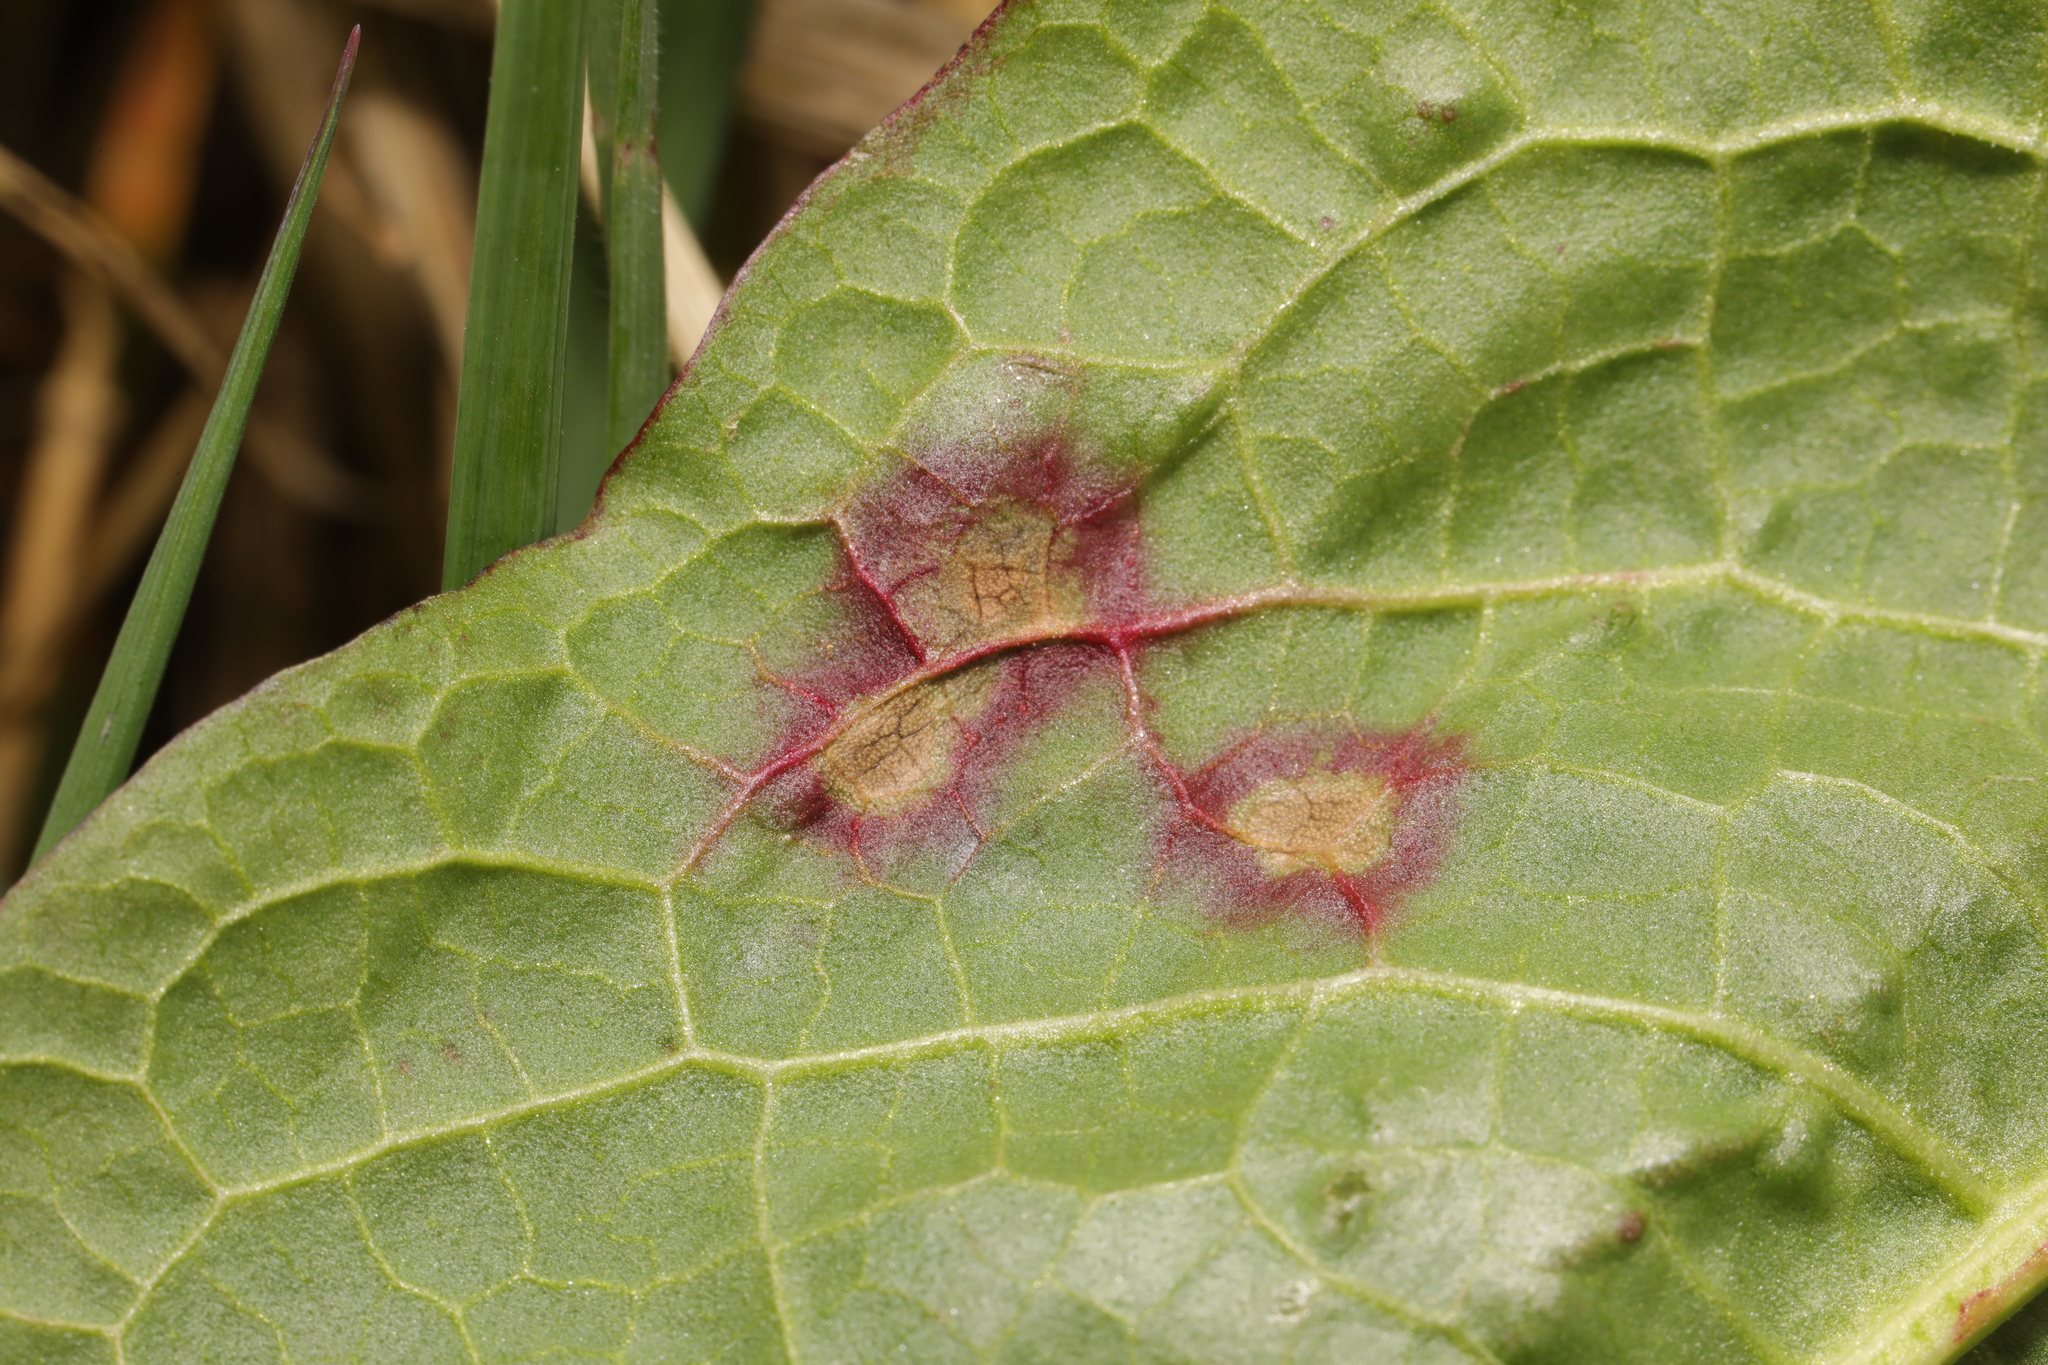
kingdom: Fungi
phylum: Ascomycota
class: Dothideomycetes
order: Mycosphaerellales
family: Mycosphaerellaceae
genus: Ramularia
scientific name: Ramularia rubella
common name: Red dock spot
